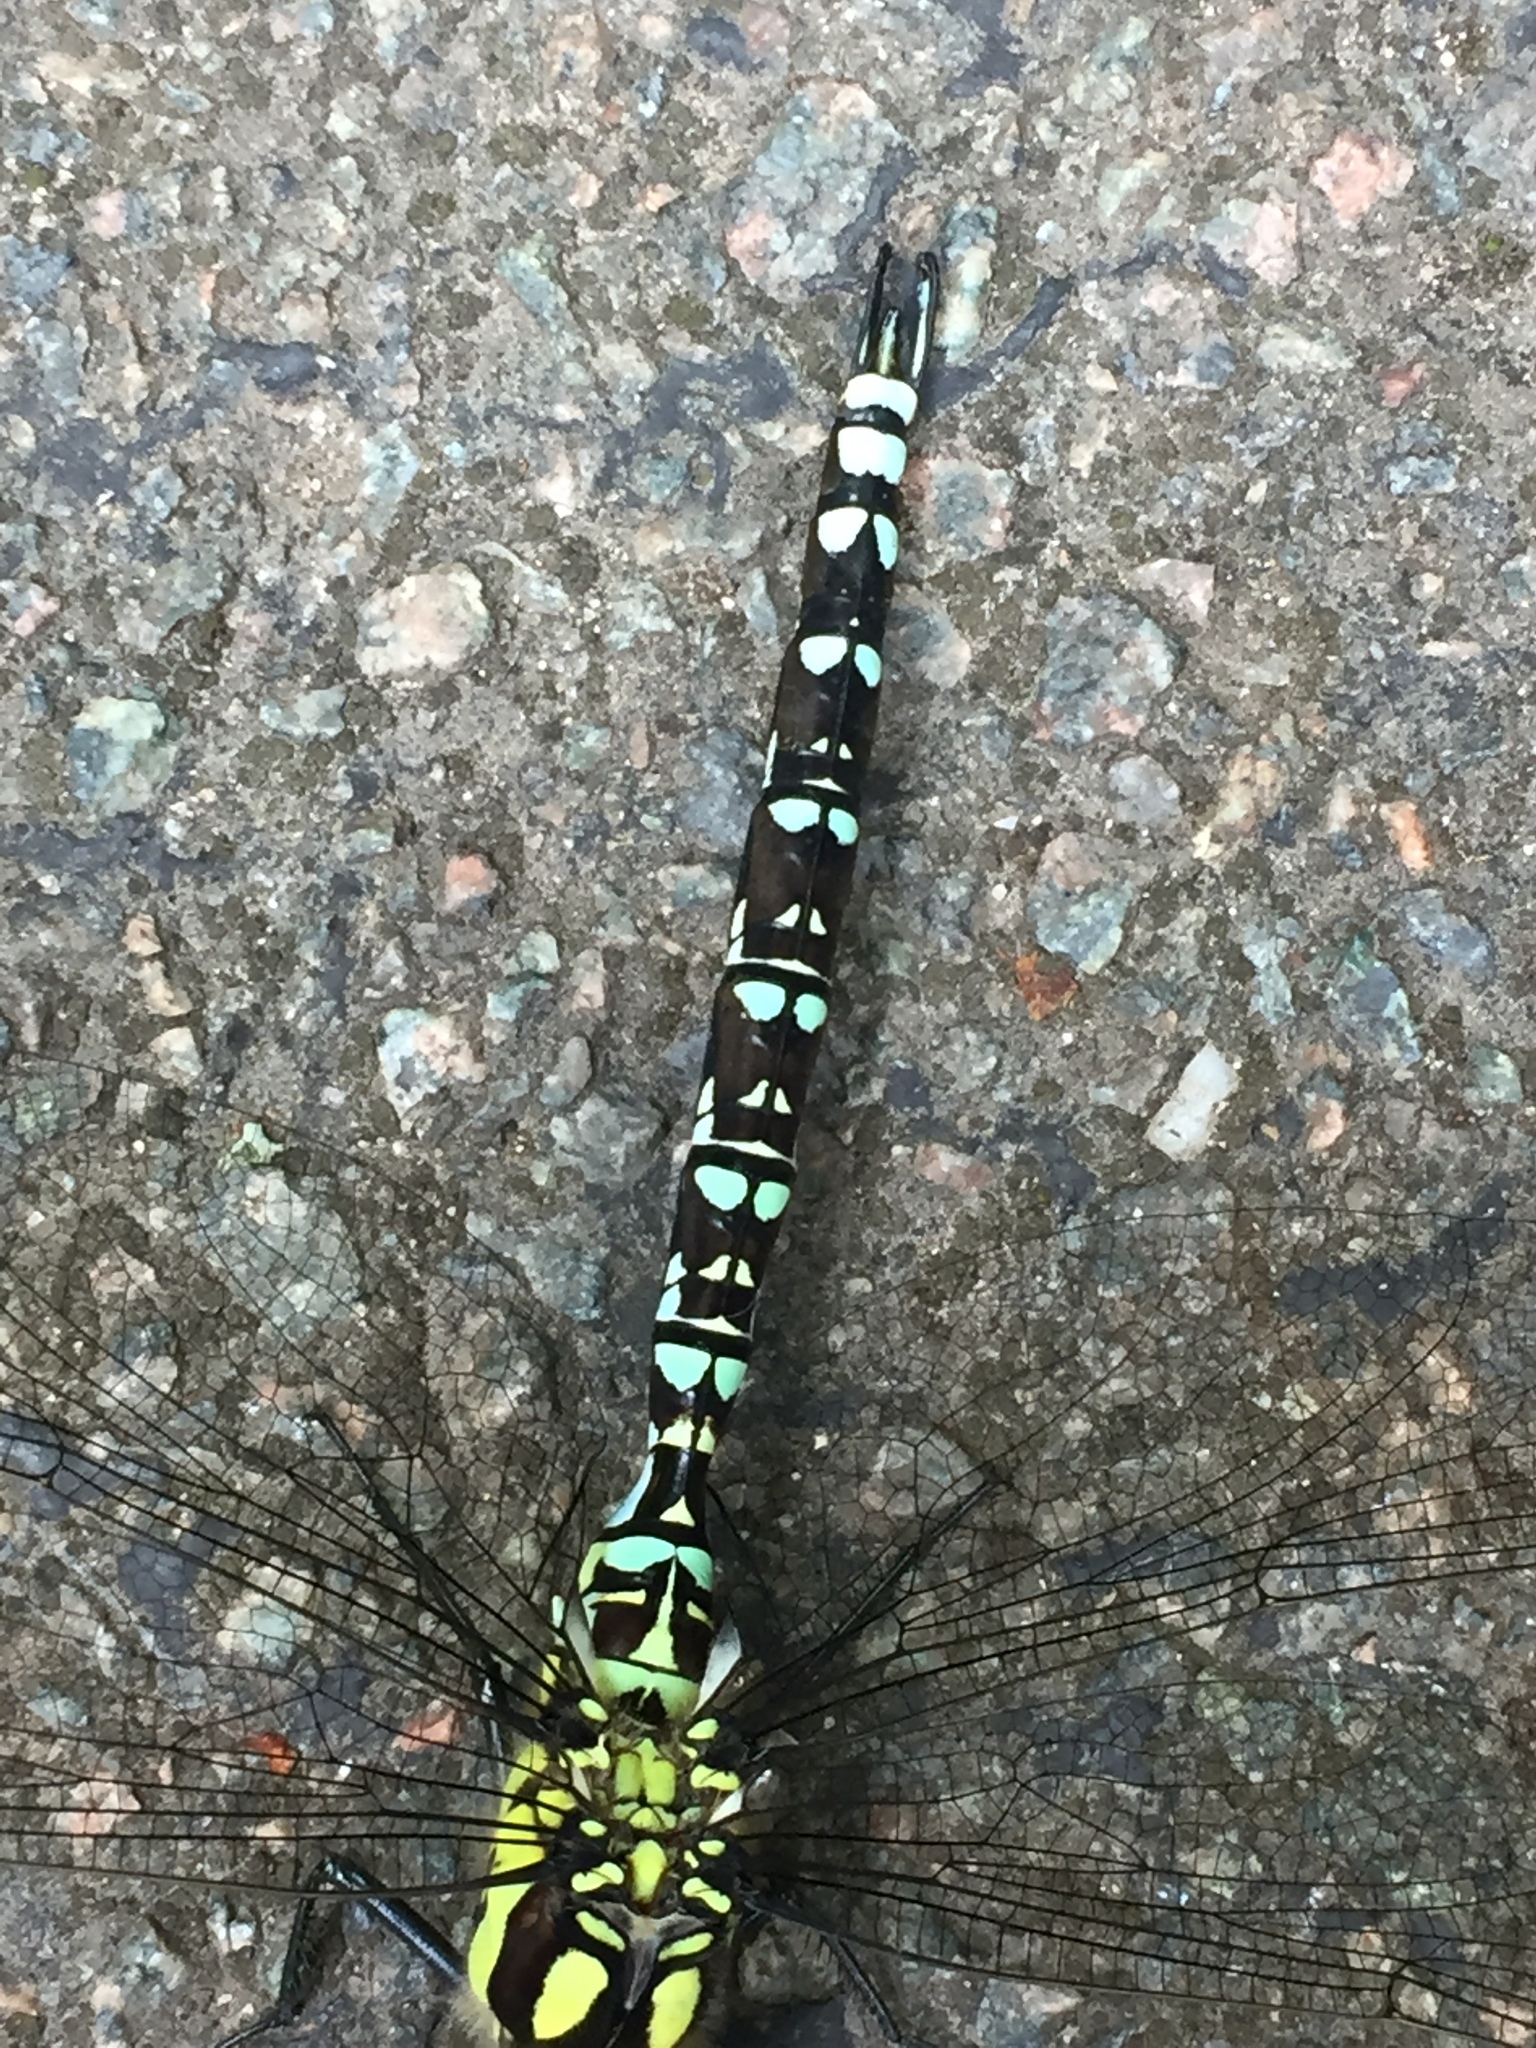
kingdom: Animalia
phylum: Arthropoda
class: Insecta
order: Odonata
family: Aeshnidae
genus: Aeshna
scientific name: Aeshna cyanea
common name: Southern hawker
